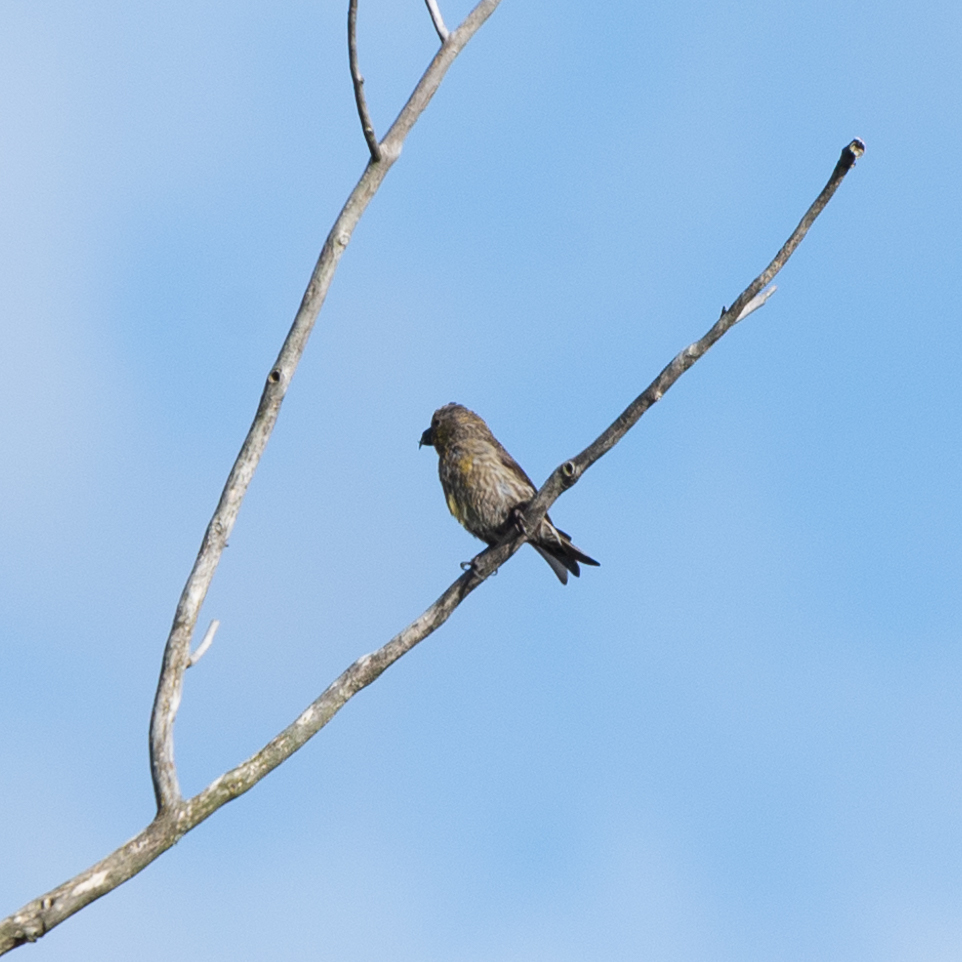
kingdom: Animalia
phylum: Chordata
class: Aves
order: Passeriformes
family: Fringillidae
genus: Loxia
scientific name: Loxia curvirostra
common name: Red crossbill
